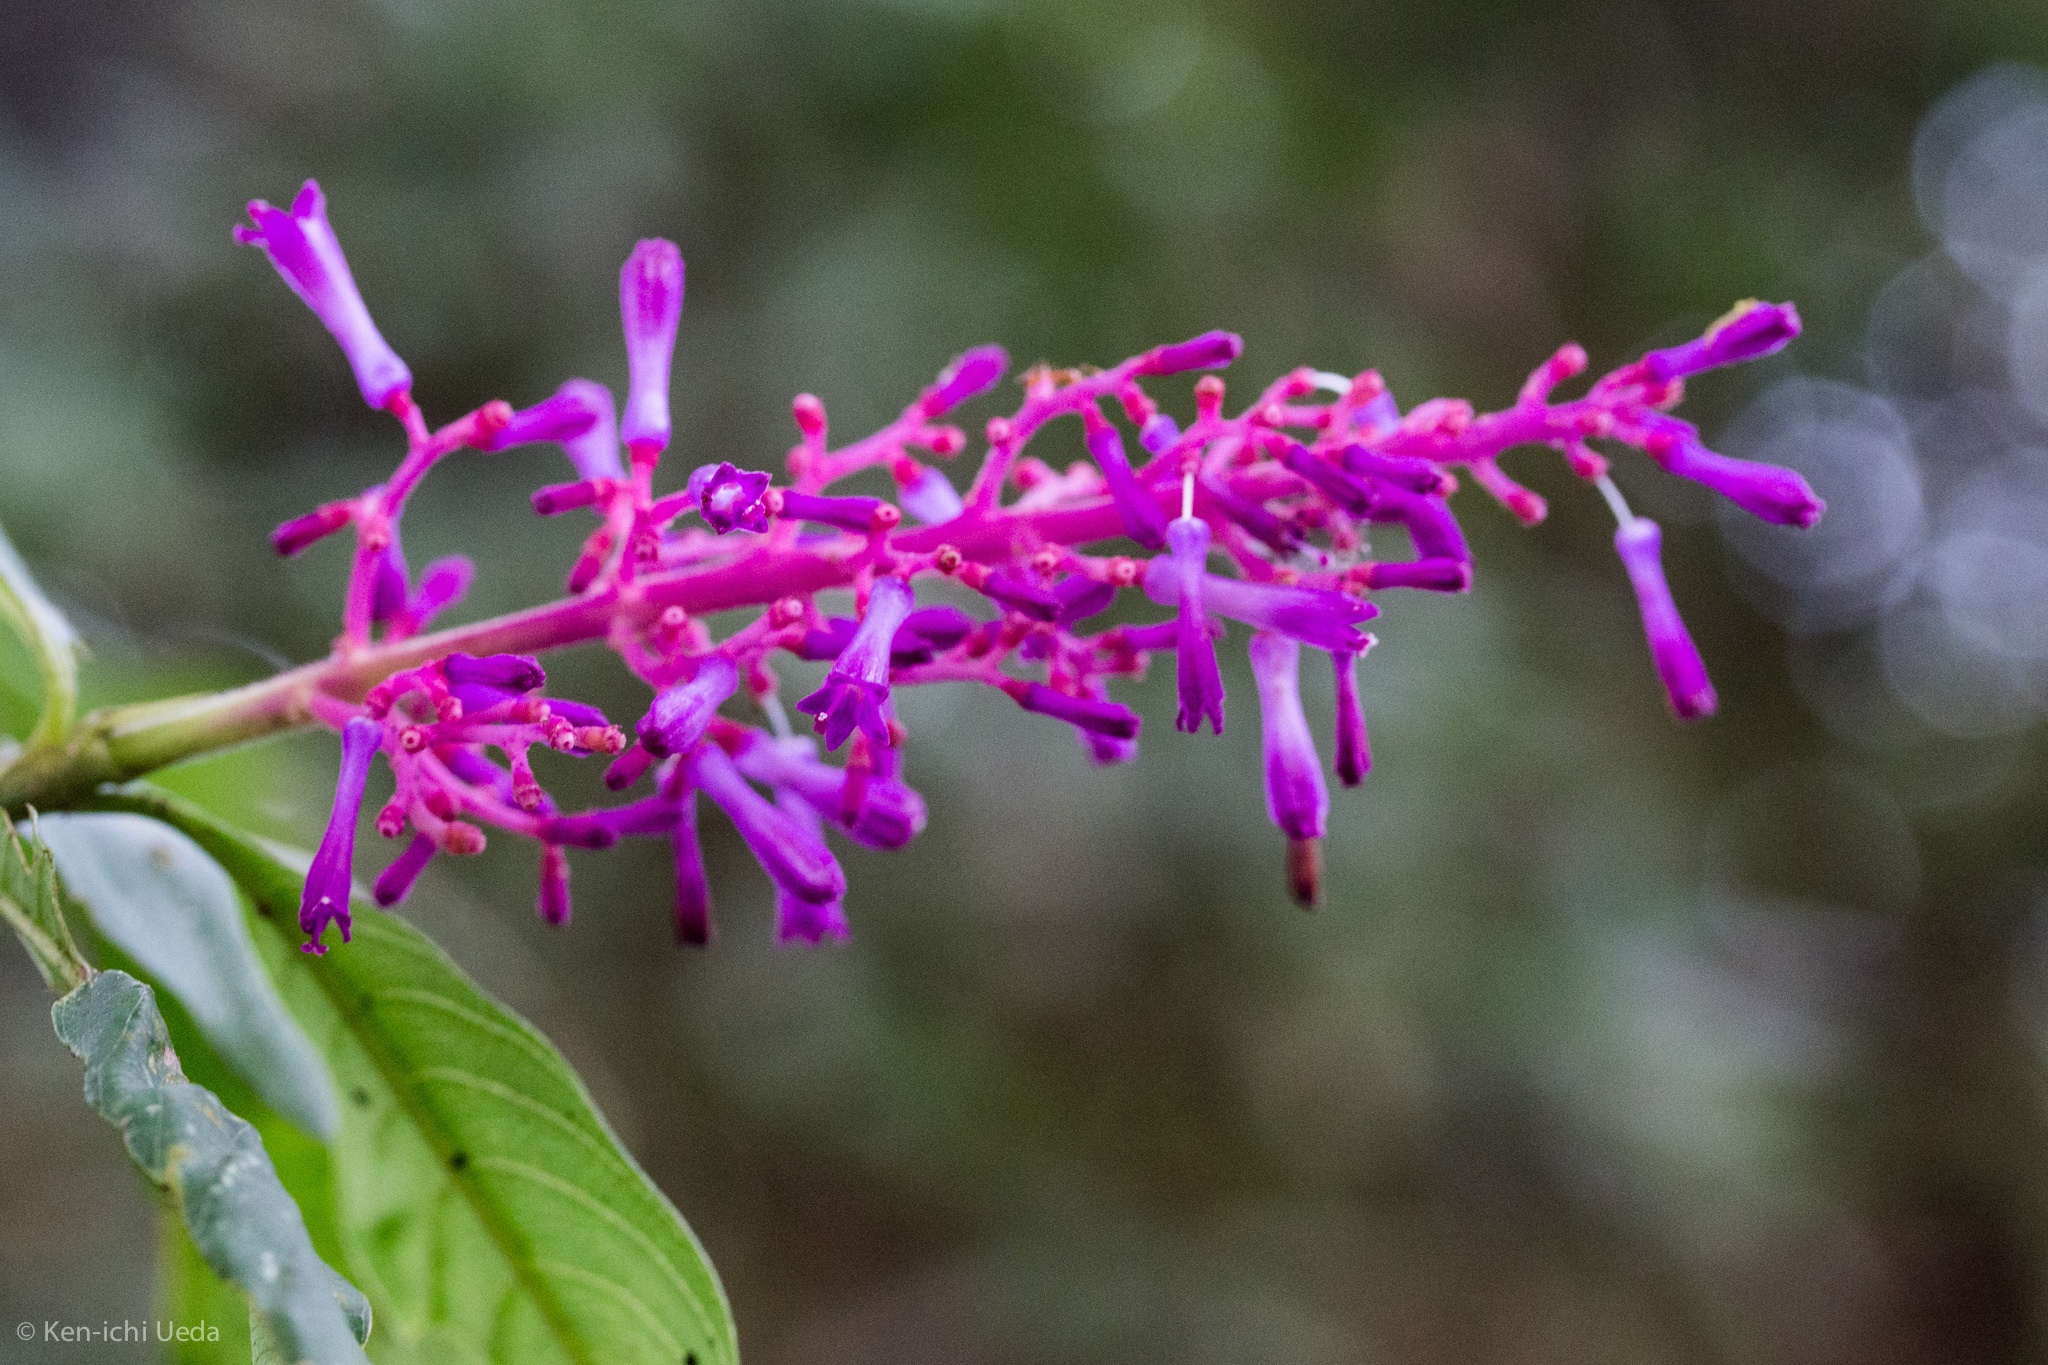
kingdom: Plantae
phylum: Tracheophyta
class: Magnoliopsida
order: Gentianales
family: Rubiaceae
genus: Palicourea
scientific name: Palicourea angustifolia
